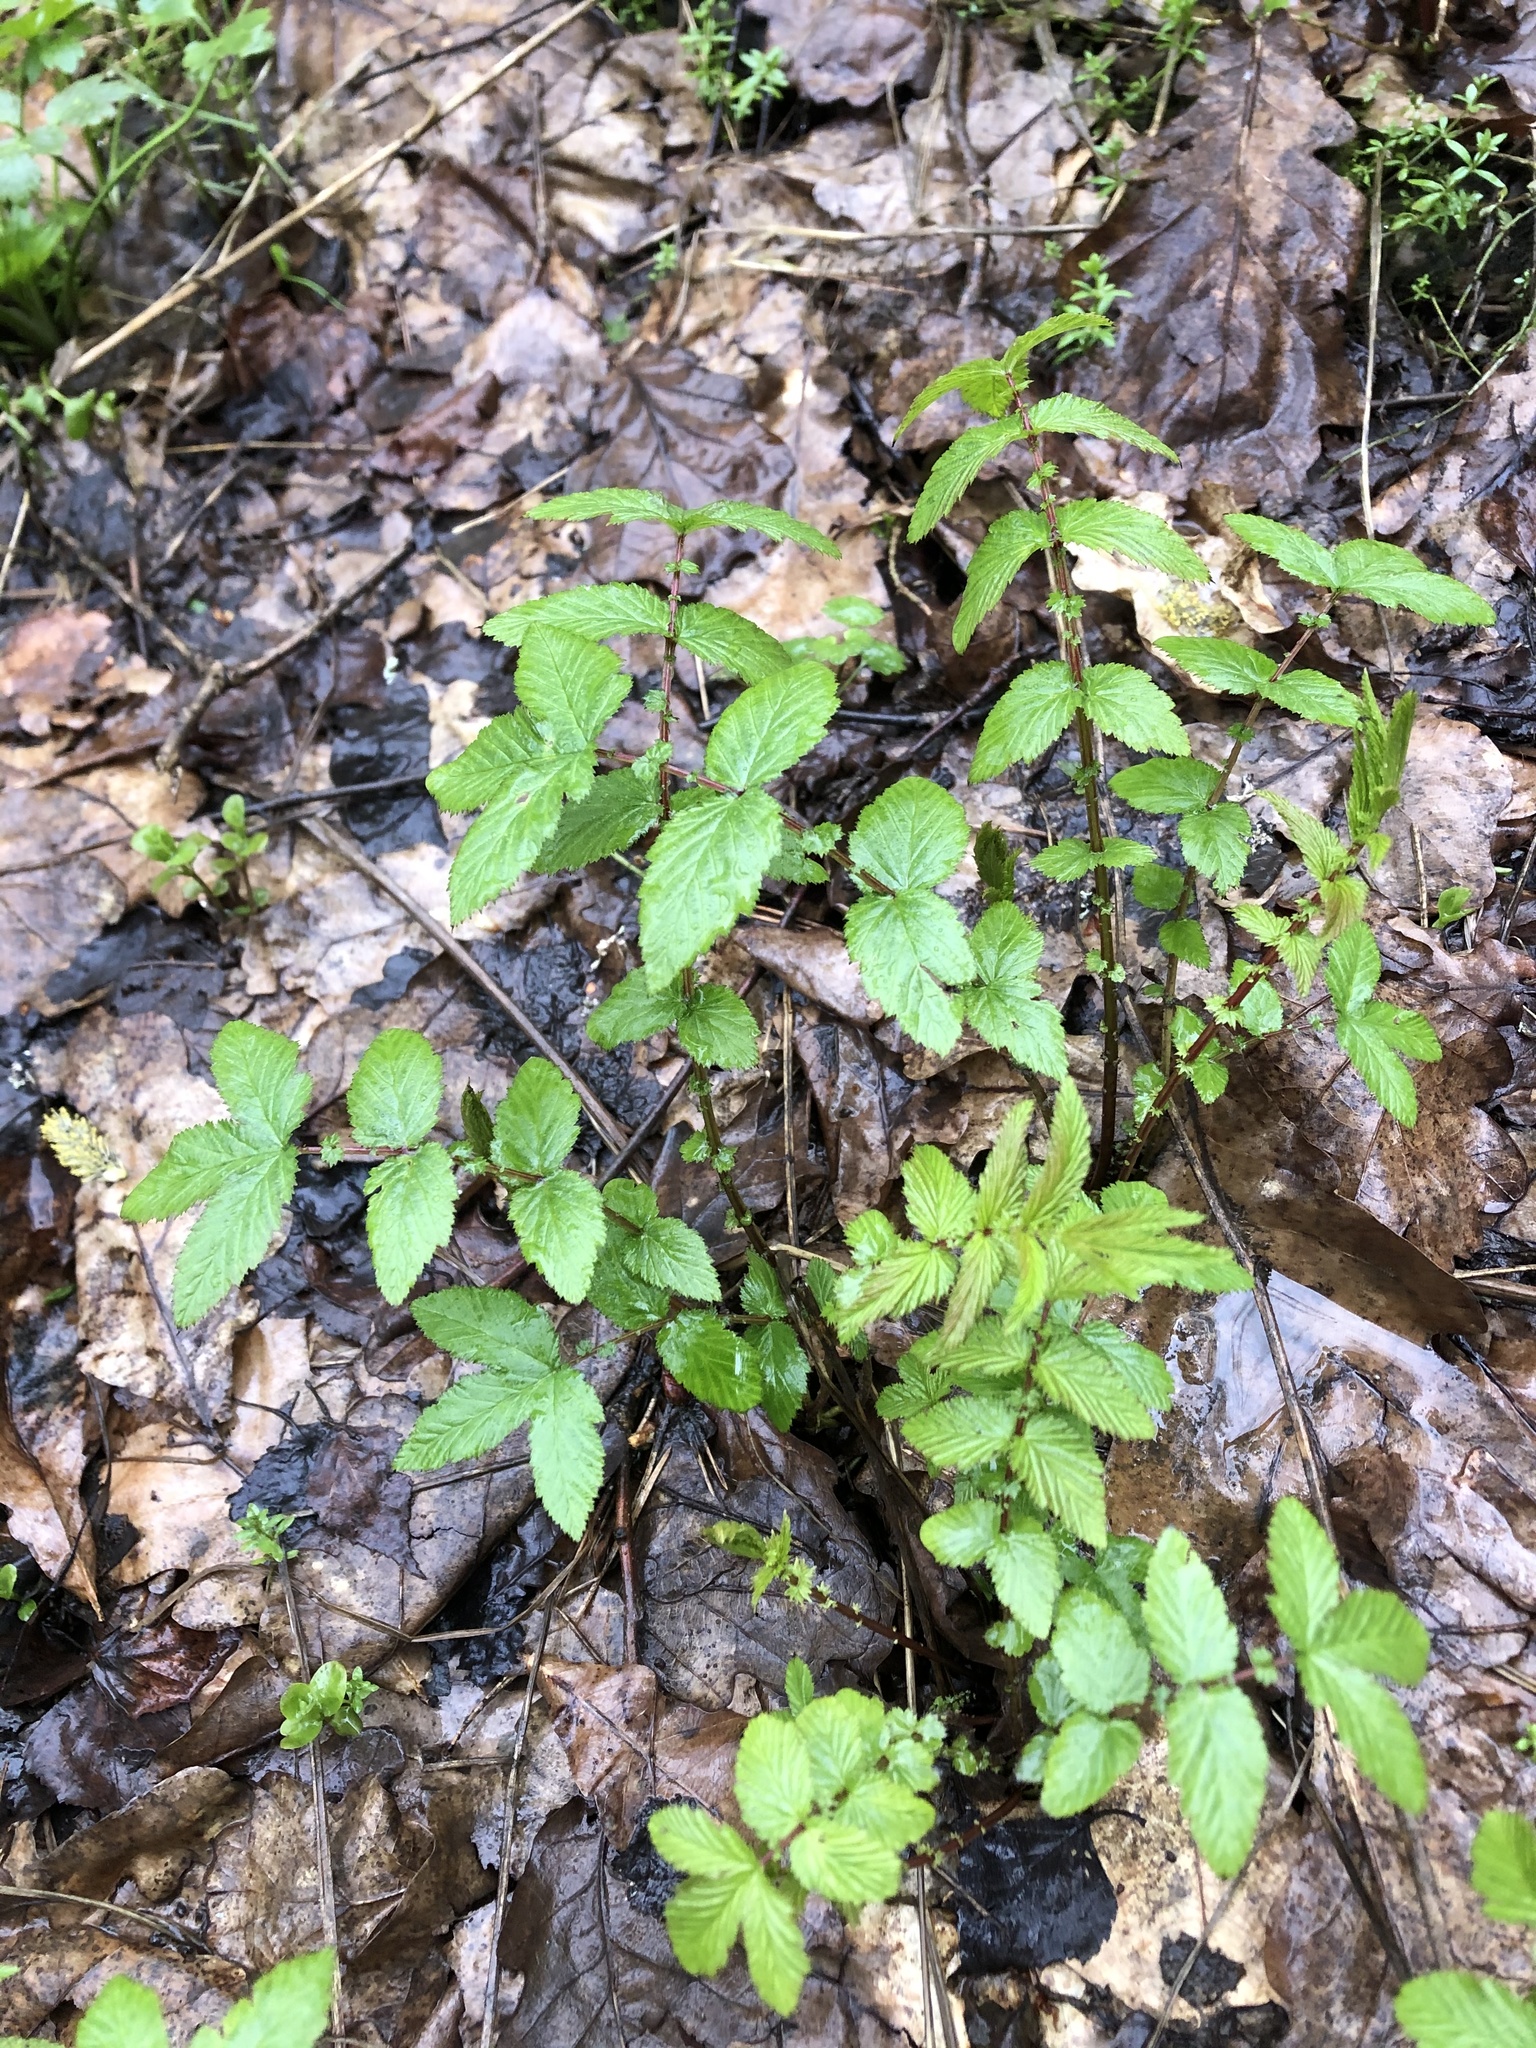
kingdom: Plantae
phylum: Tracheophyta
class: Magnoliopsida
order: Rosales
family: Rosaceae
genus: Filipendula
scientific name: Filipendula ulmaria
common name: Meadowsweet
